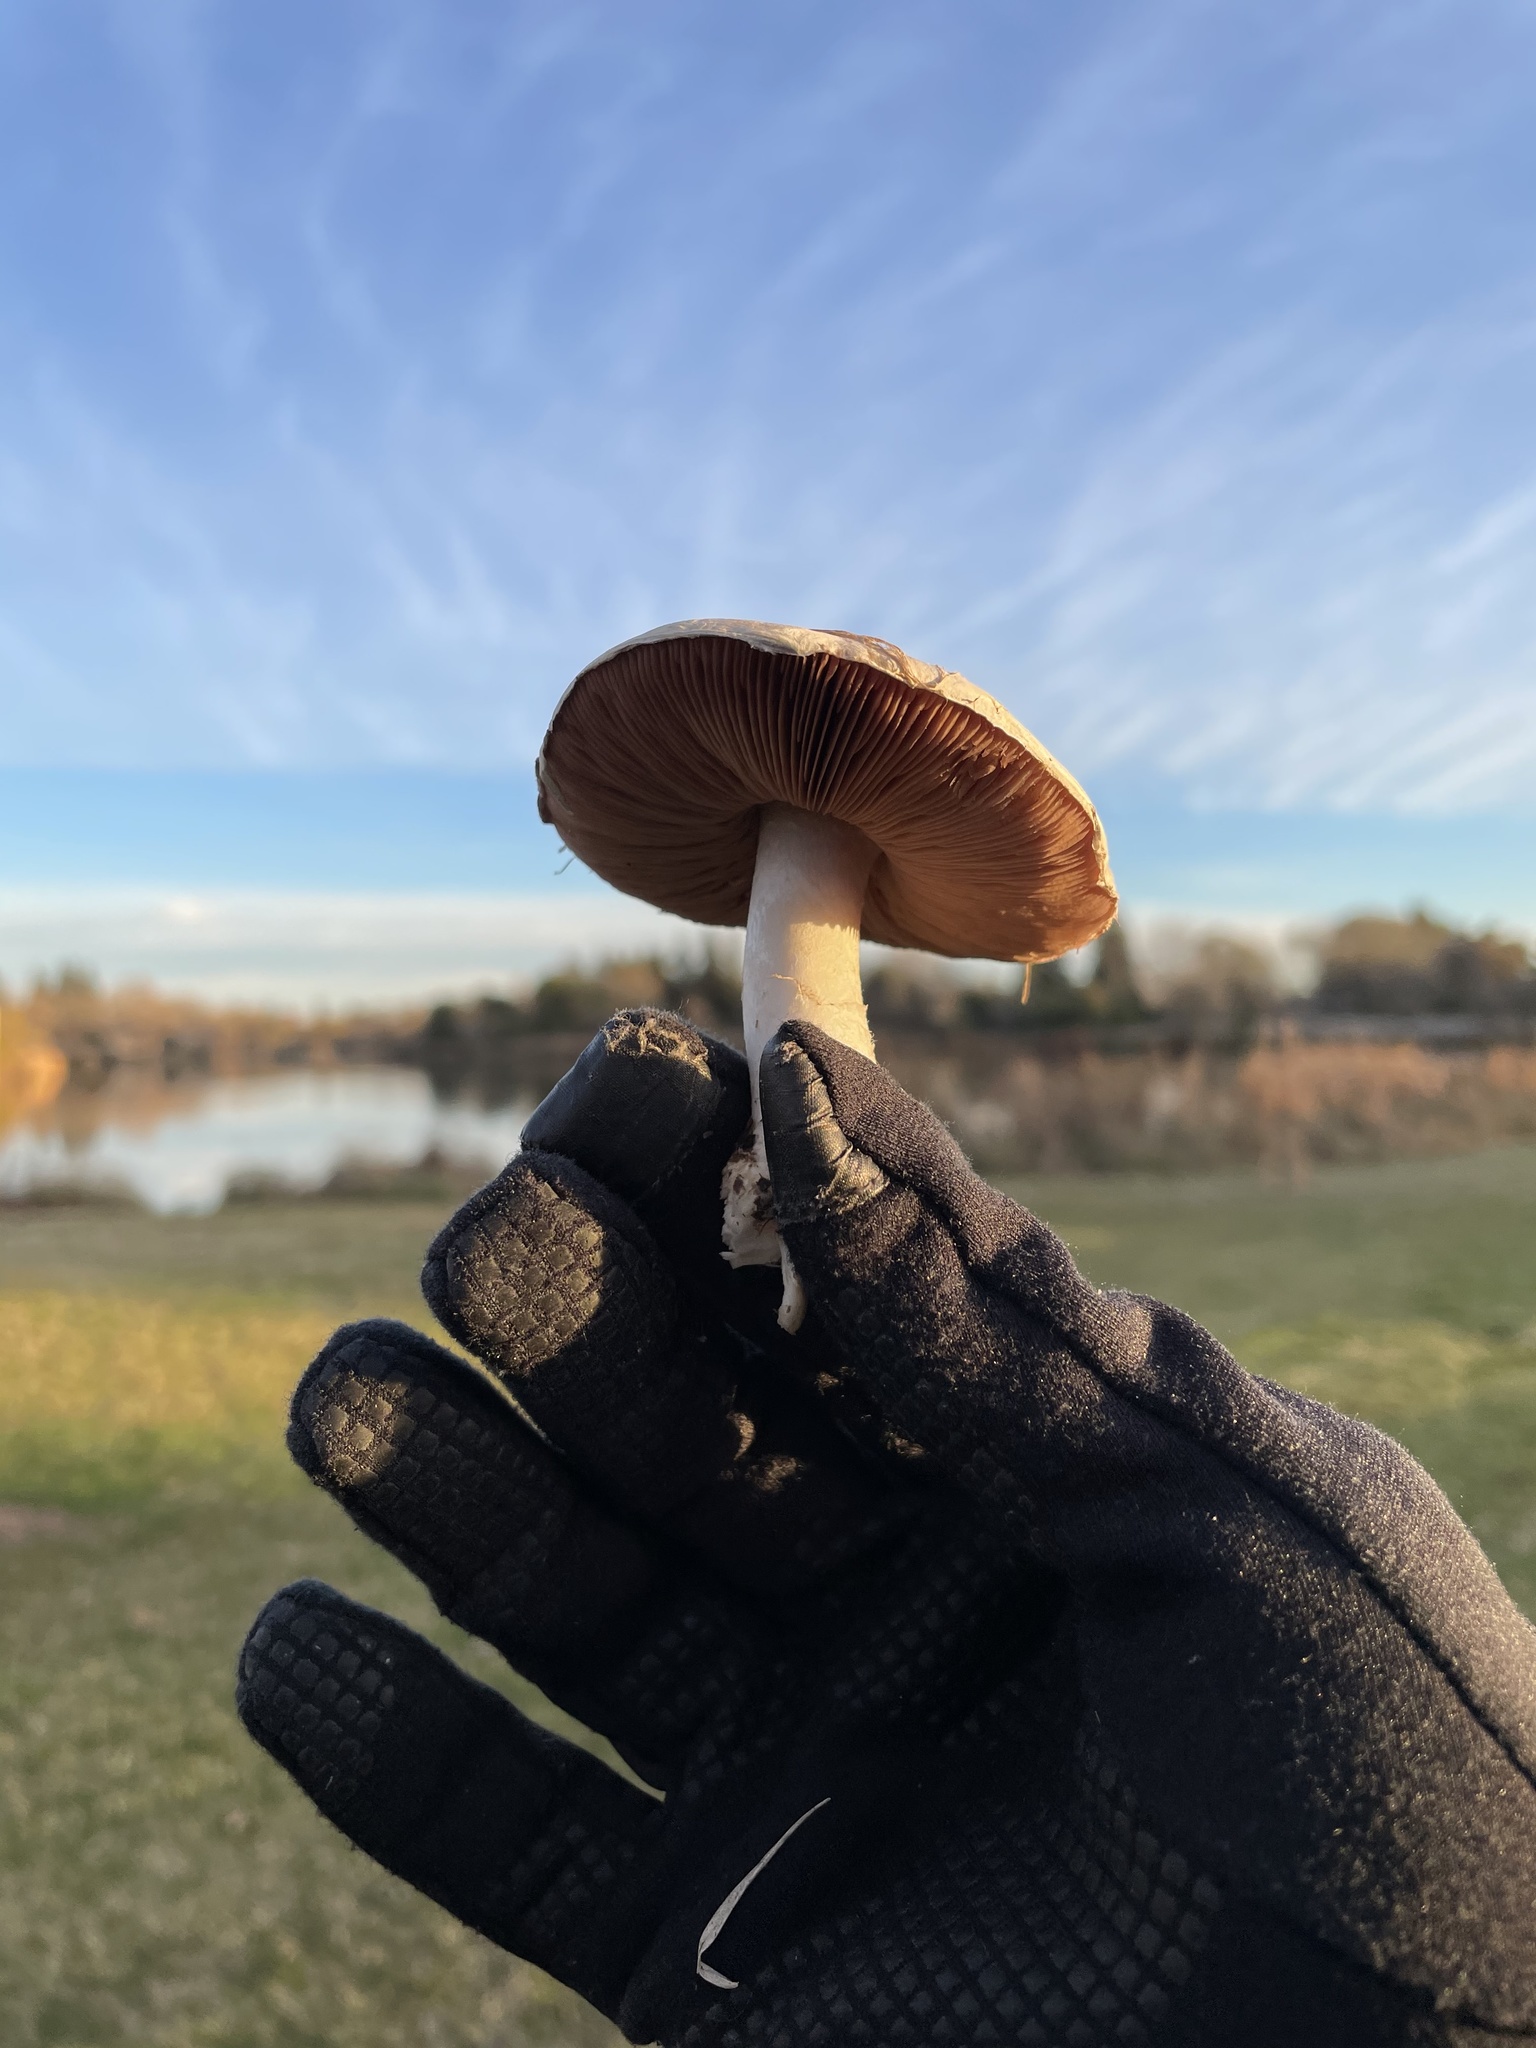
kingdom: Fungi
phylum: Basidiomycota
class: Agaricomycetes
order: Agaricales
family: Pluteaceae
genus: Volvopluteus
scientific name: Volvopluteus gloiocephalus
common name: Stubble rosegill
